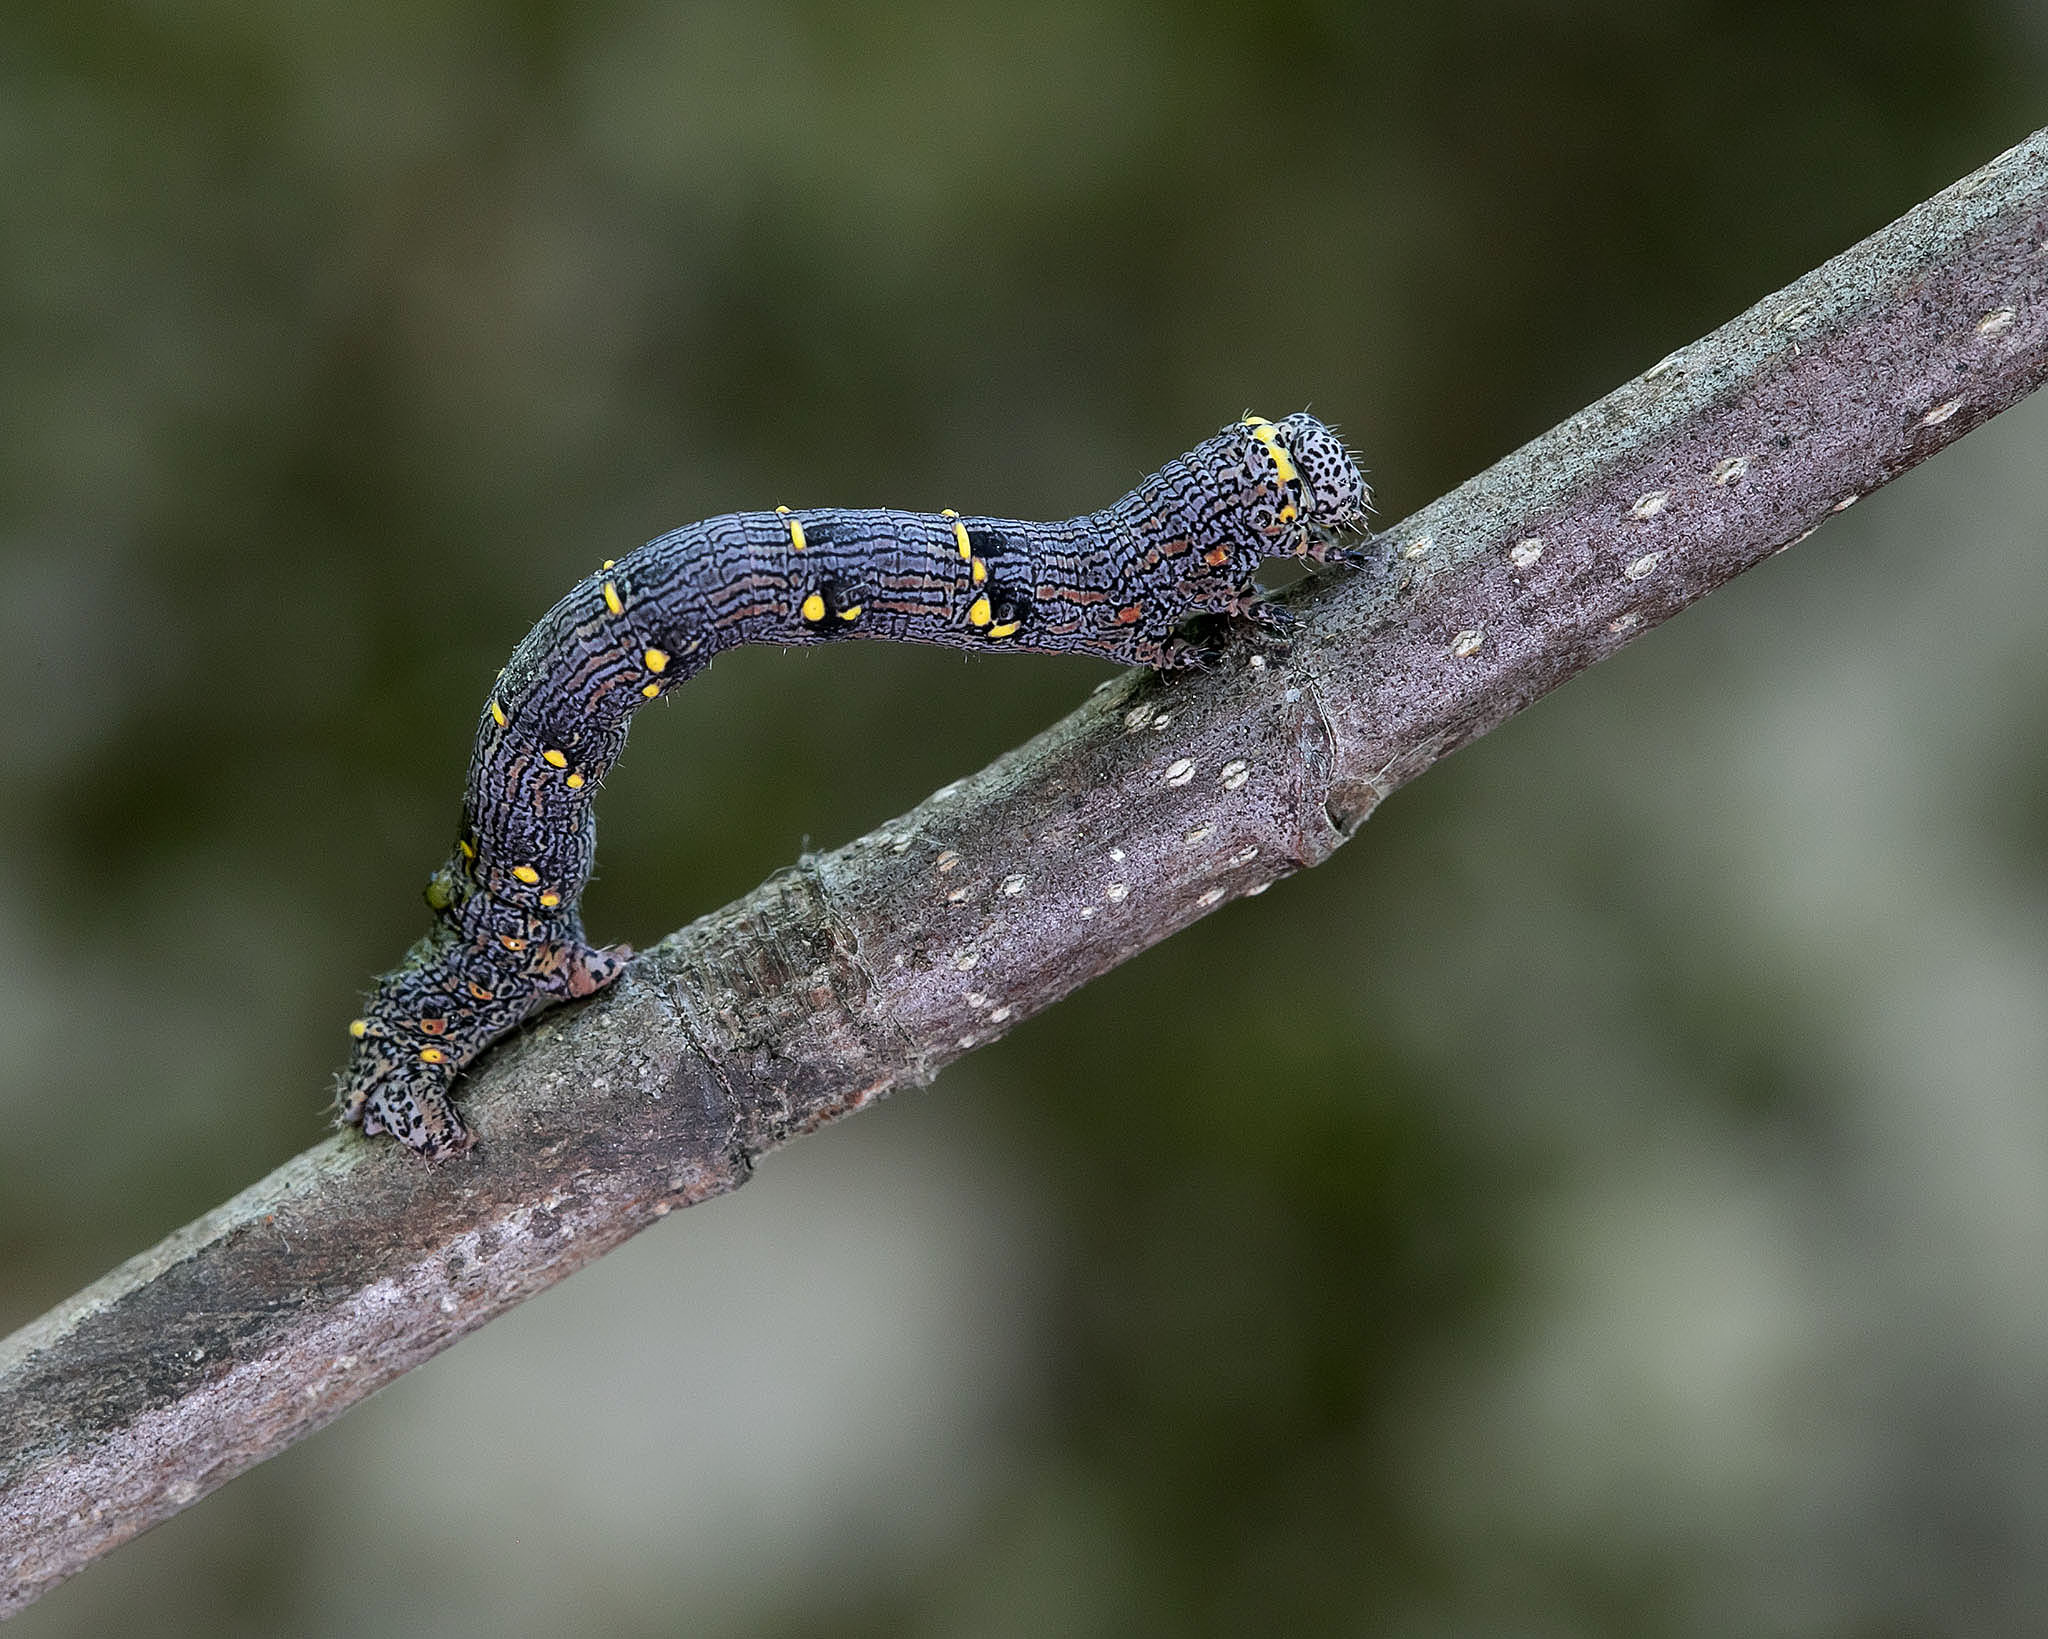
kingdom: Animalia
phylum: Arthropoda
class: Insecta
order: Lepidoptera
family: Geometridae
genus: Lycia
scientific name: Lycia ursaria
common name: Stout spanworm
